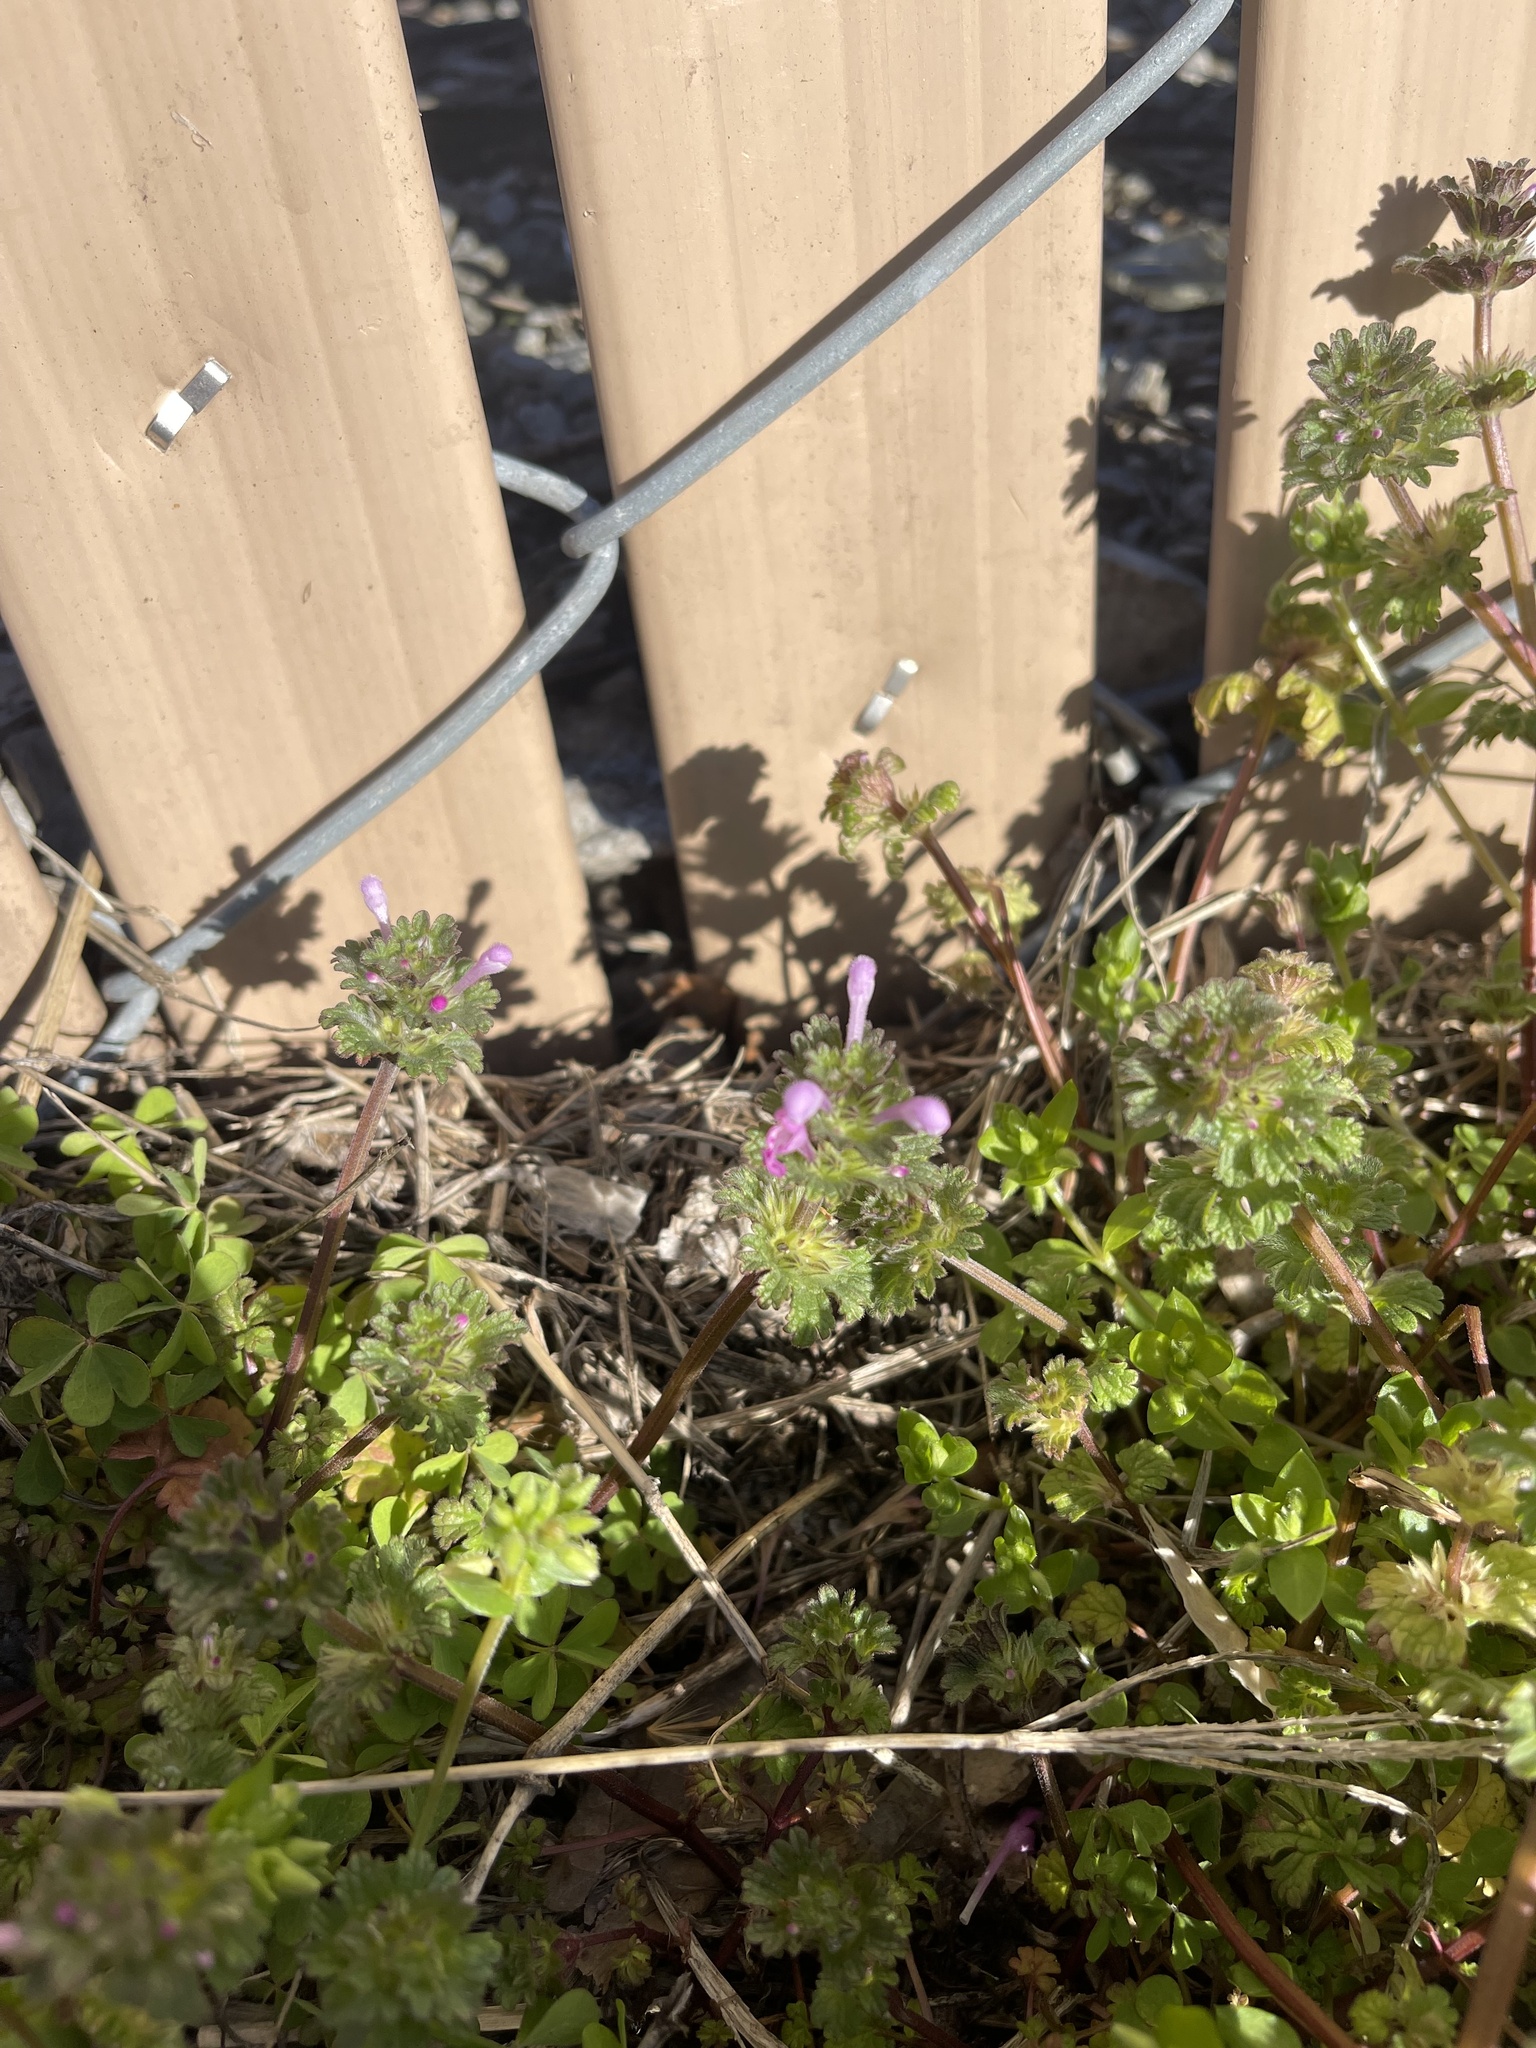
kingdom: Plantae
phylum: Tracheophyta
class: Magnoliopsida
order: Lamiales
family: Lamiaceae
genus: Lamium
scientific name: Lamium amplexicaule
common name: Henbit dead-nettle
